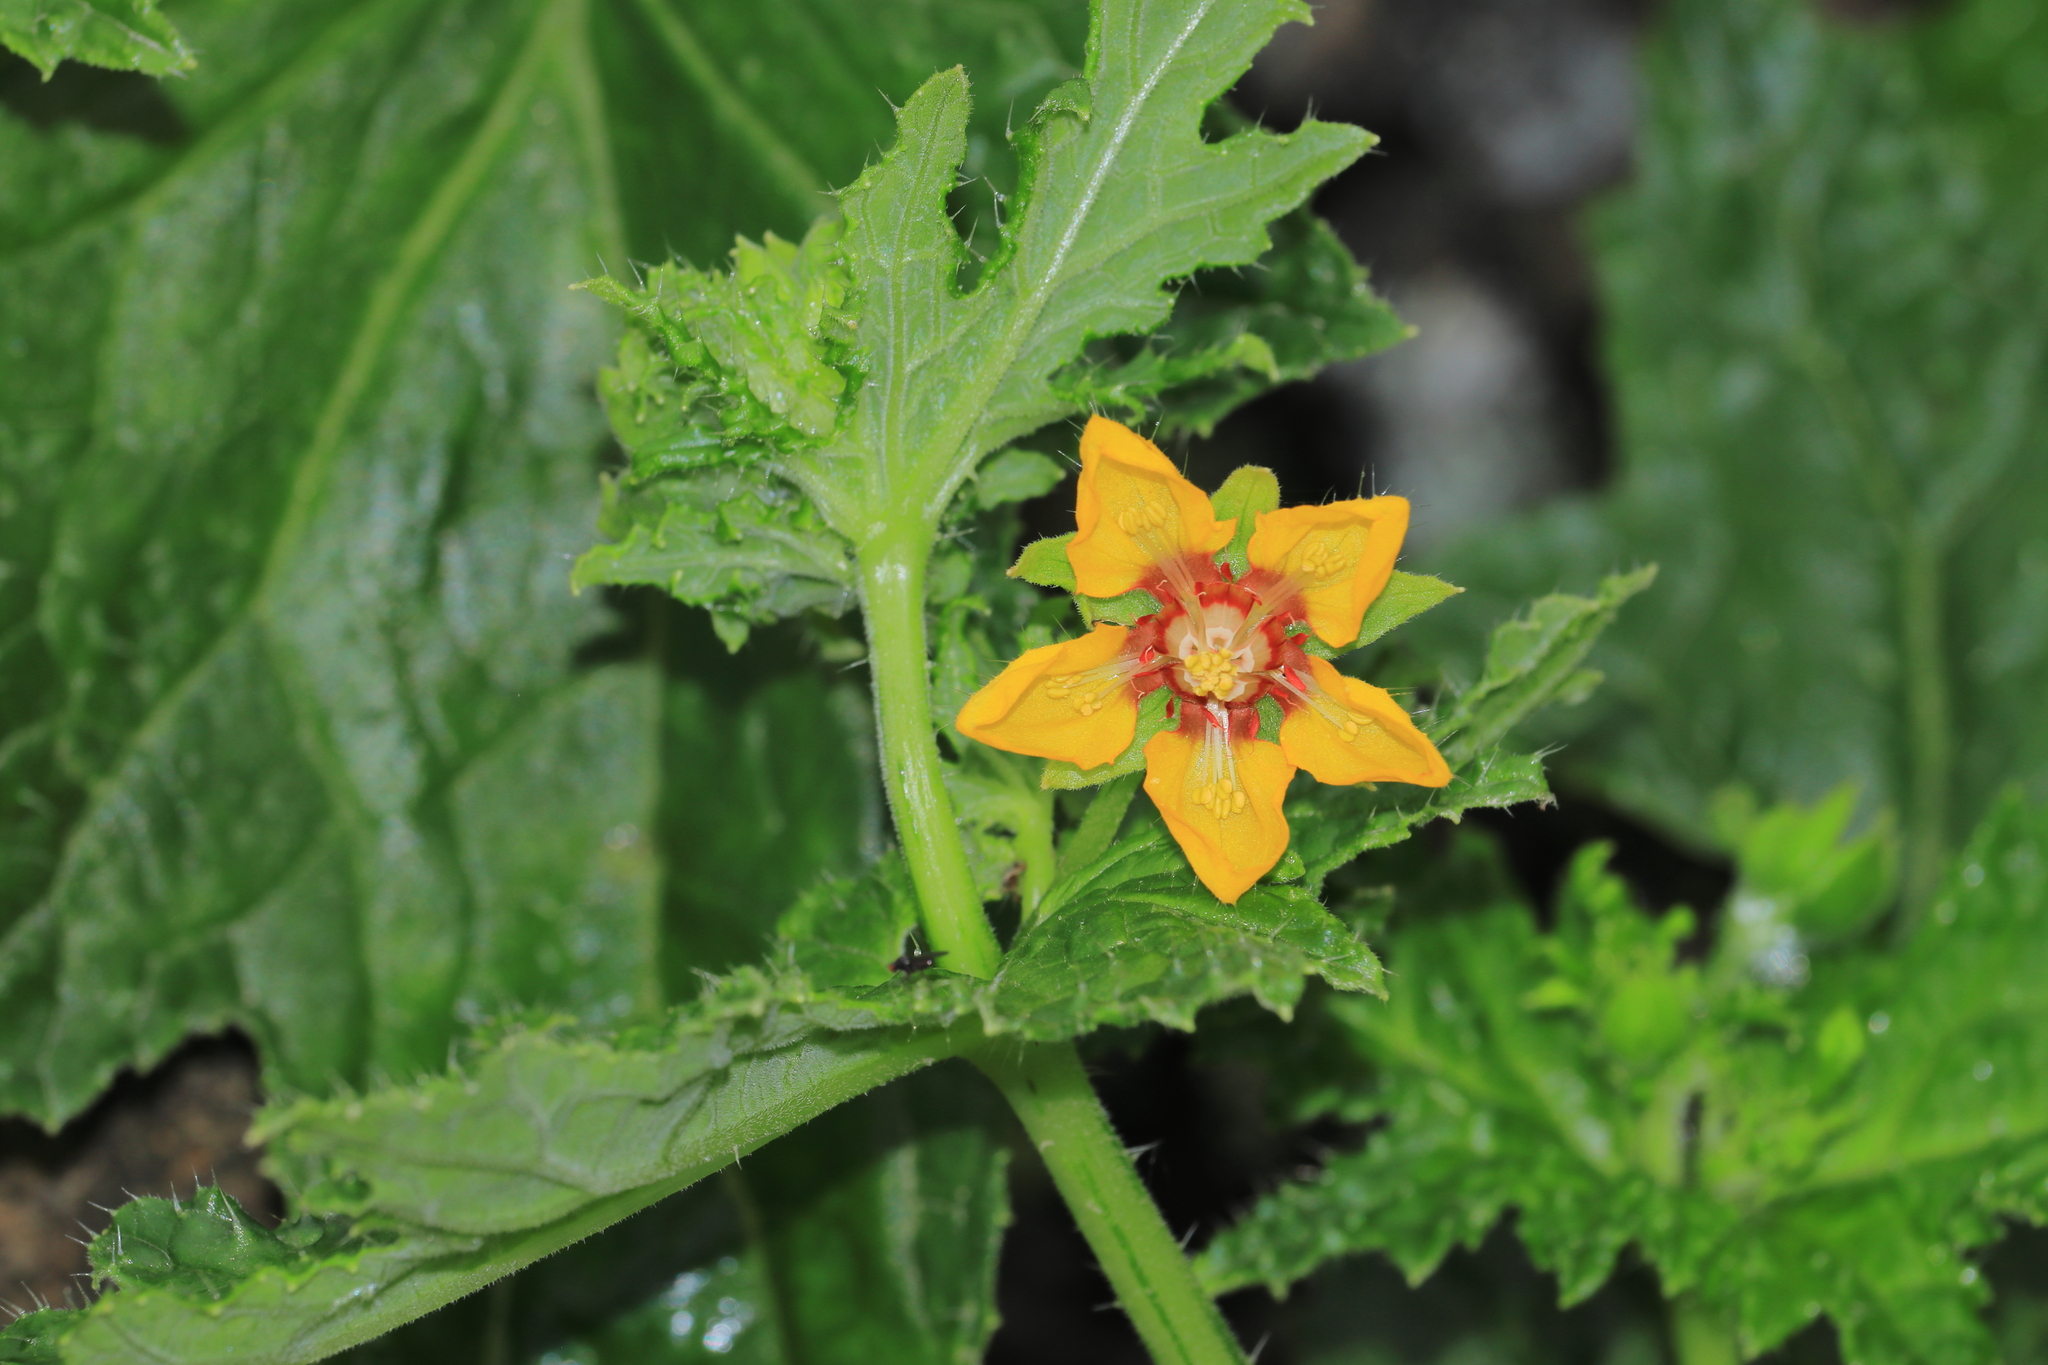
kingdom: Plantae
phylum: Tracheophyta
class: Magnoliopsida
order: Cornales
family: Loasaceae
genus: Loasa
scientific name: Loasa nitida
